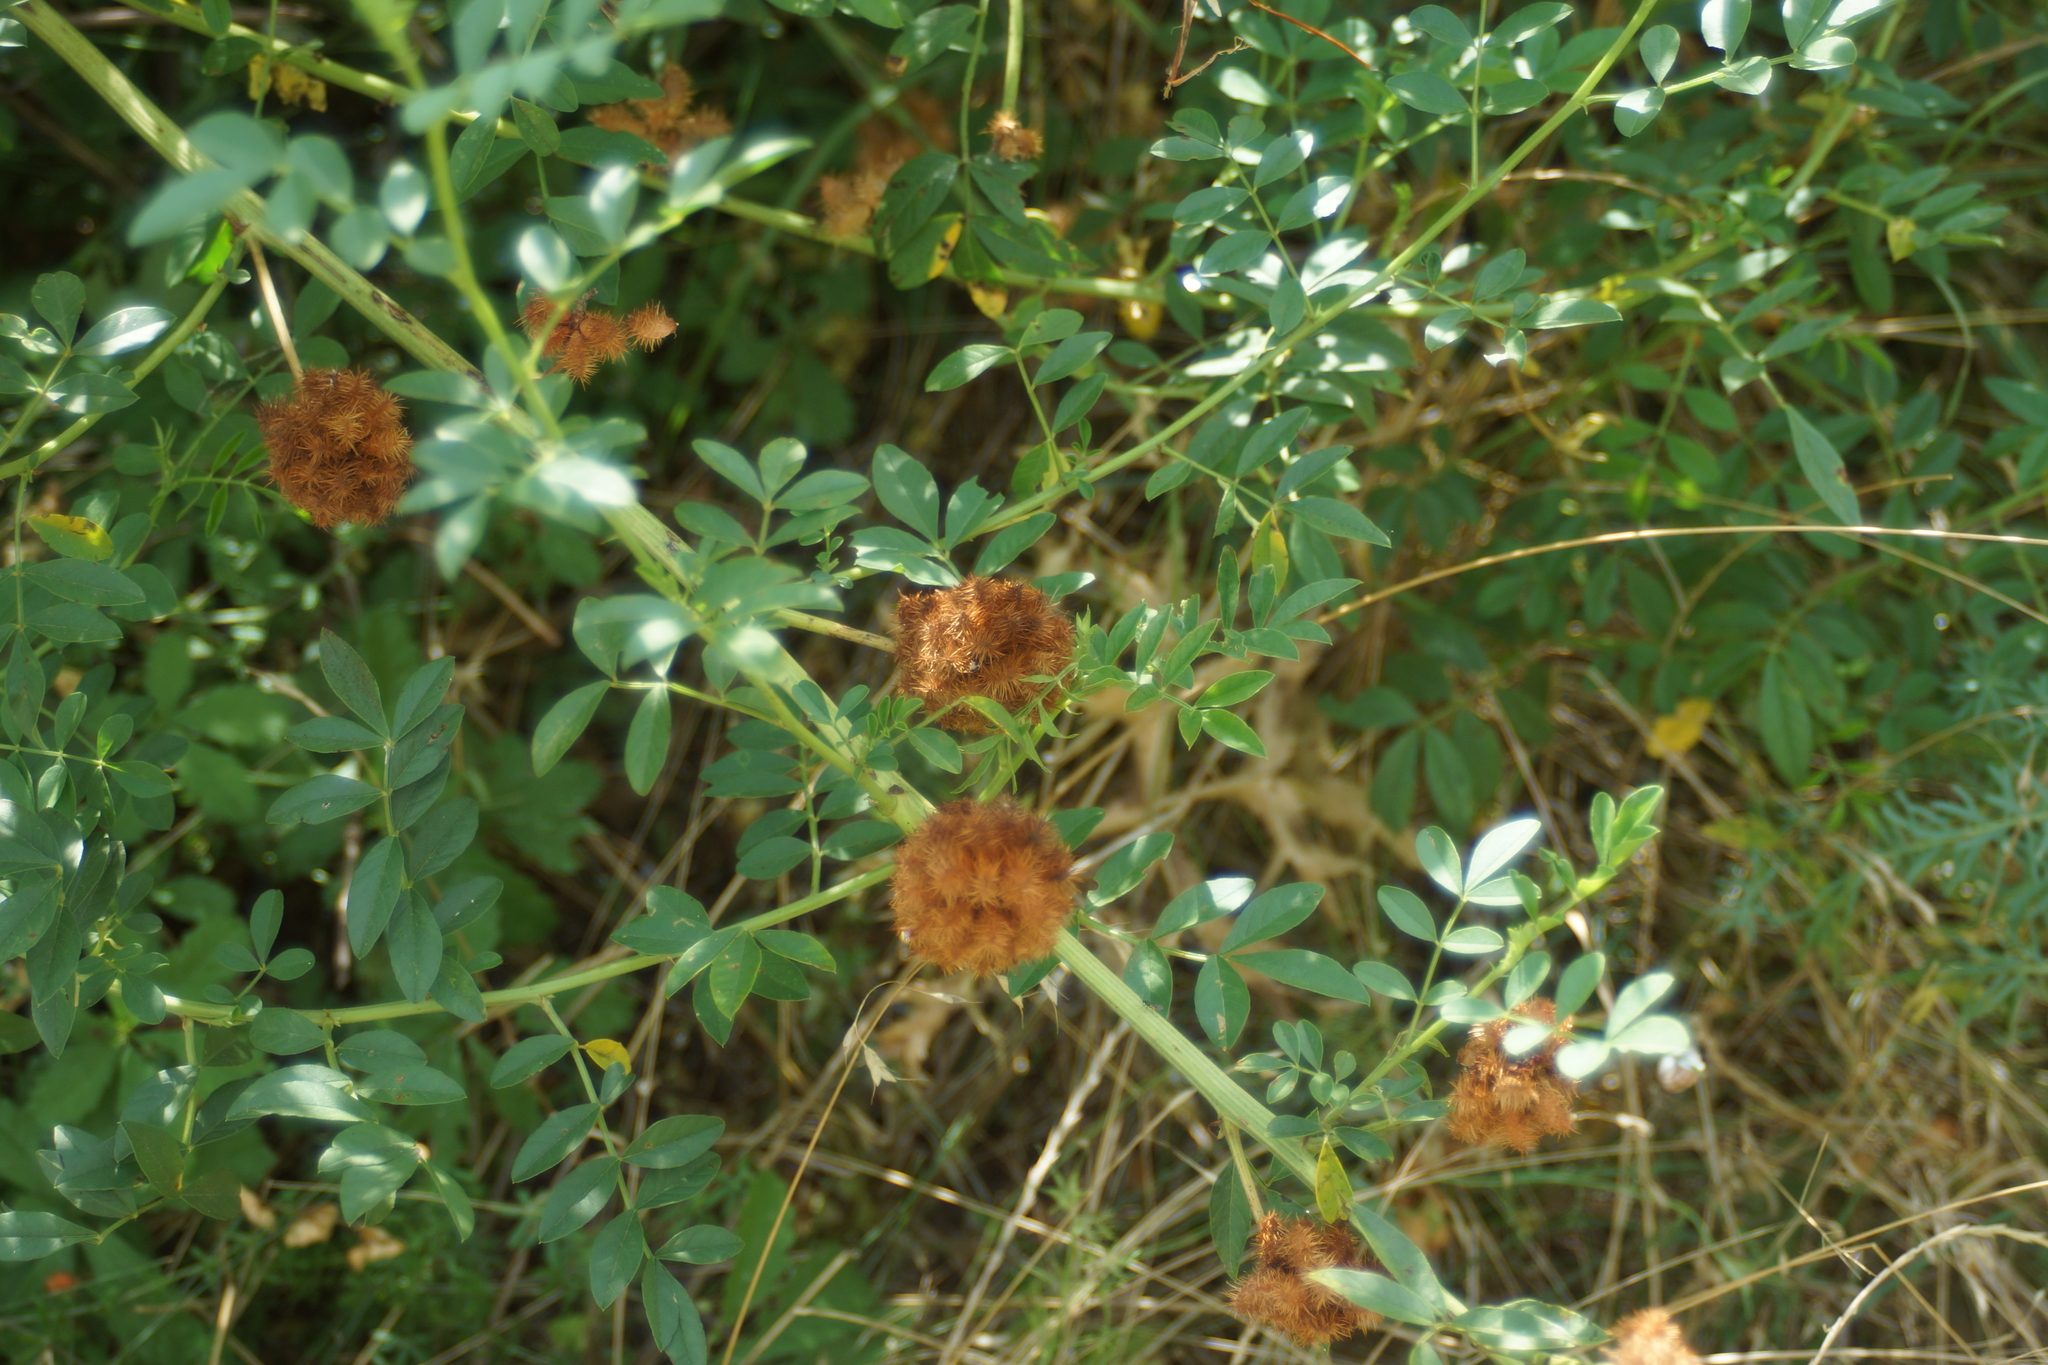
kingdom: Plantae
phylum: Tracheophyta
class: Magnoliopsida
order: Fabales
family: Fabaceae
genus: Glycyrrhiza
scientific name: Glycyrrhiza echinata
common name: German liquorice
